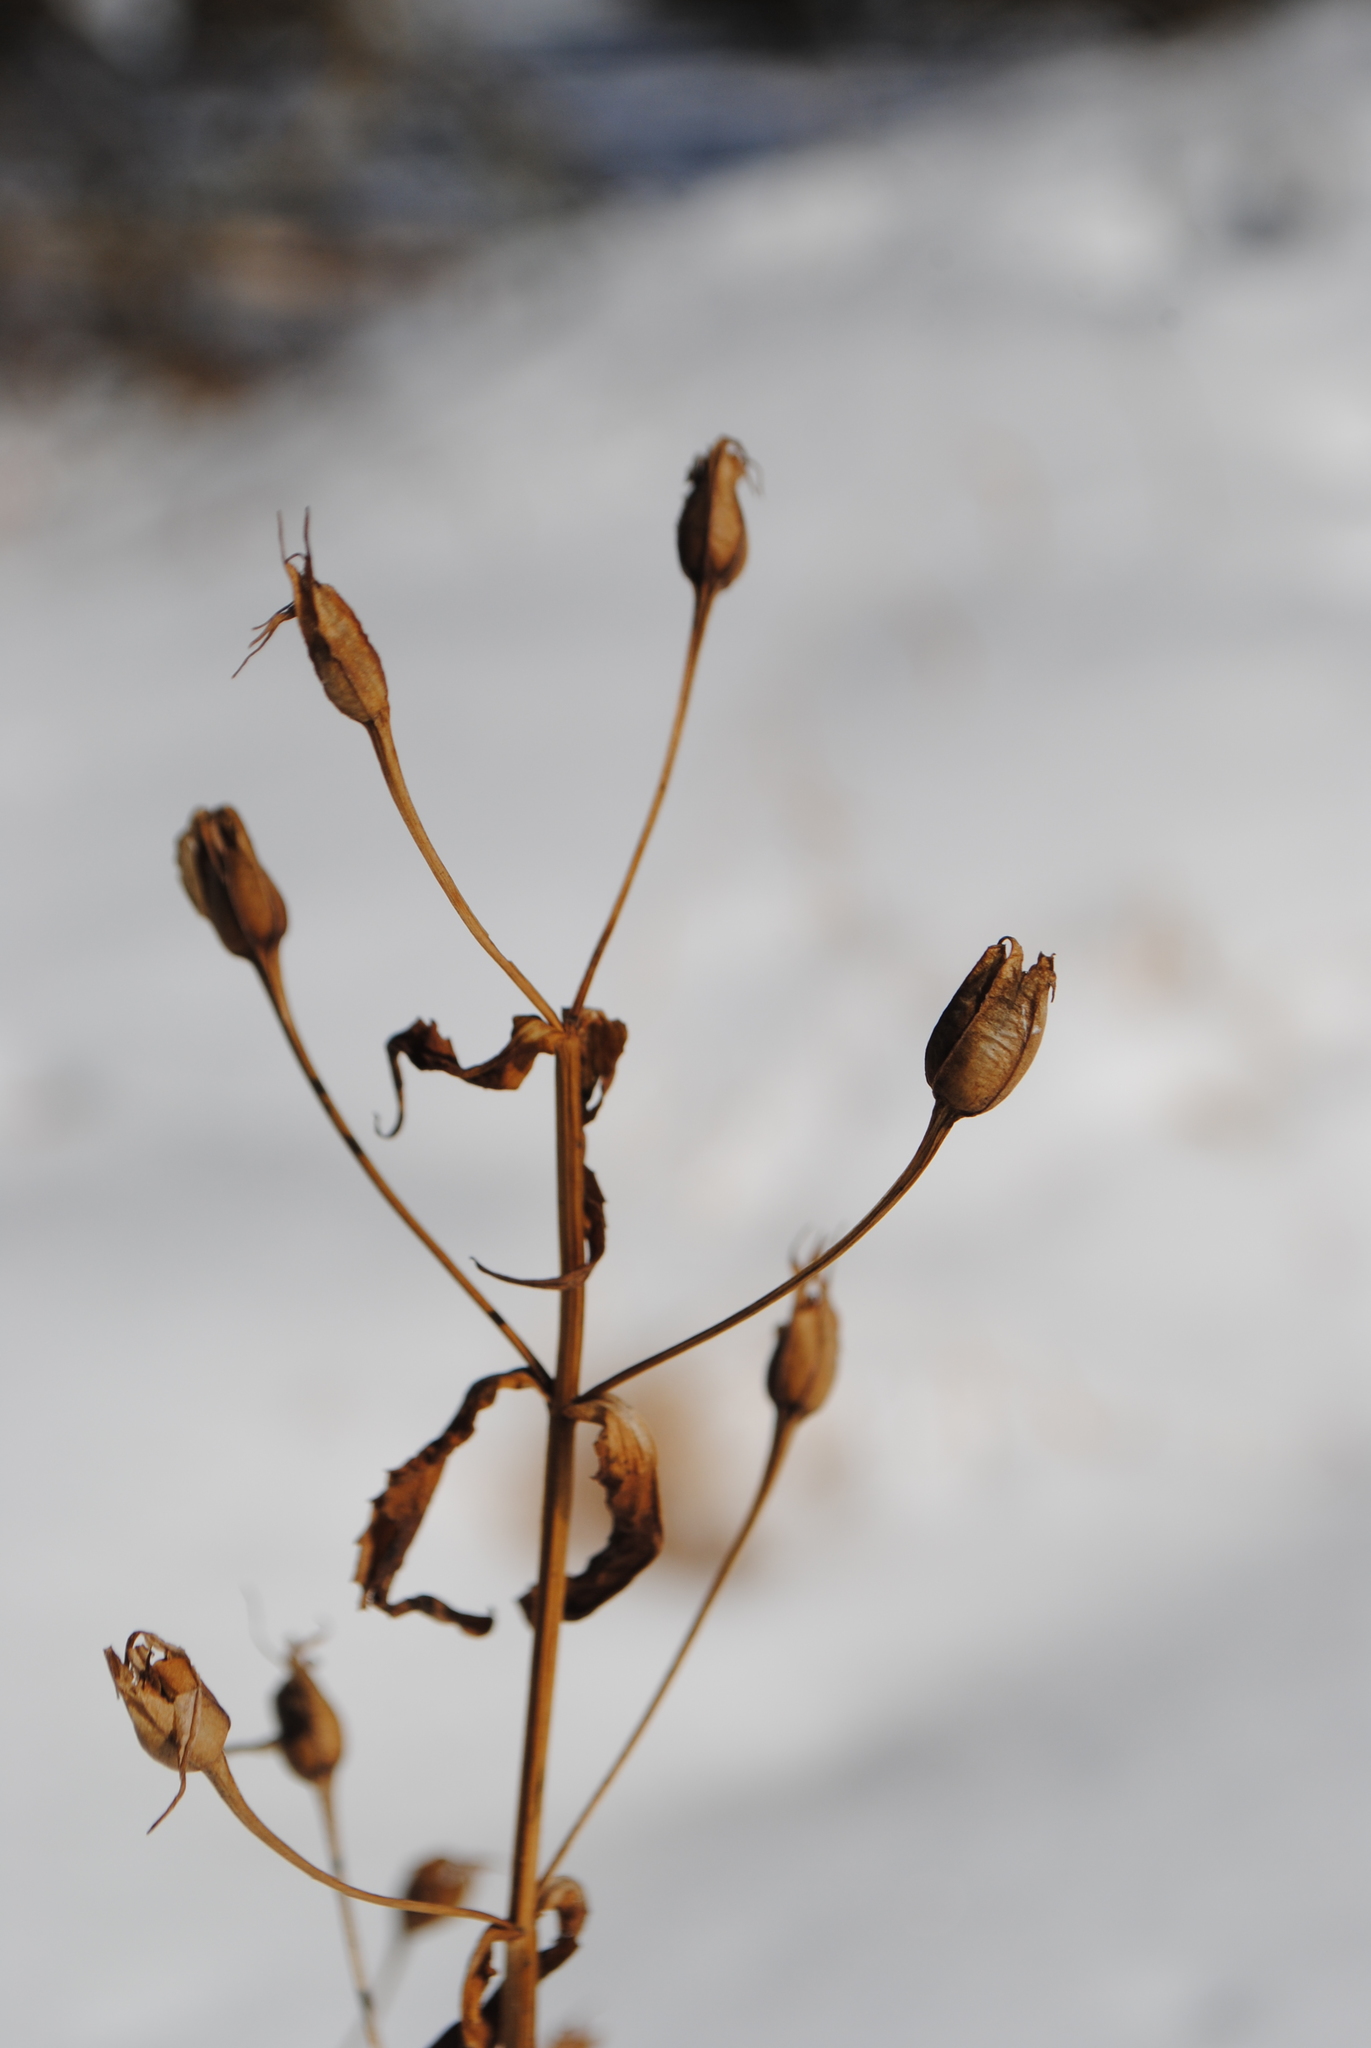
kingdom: Plantae
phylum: Tracheophyta
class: Magnoliopsida
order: Lamiales
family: Phrymaceae
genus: Mimulus
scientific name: Mimulus ringens
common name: Allegheny monkeyflower
